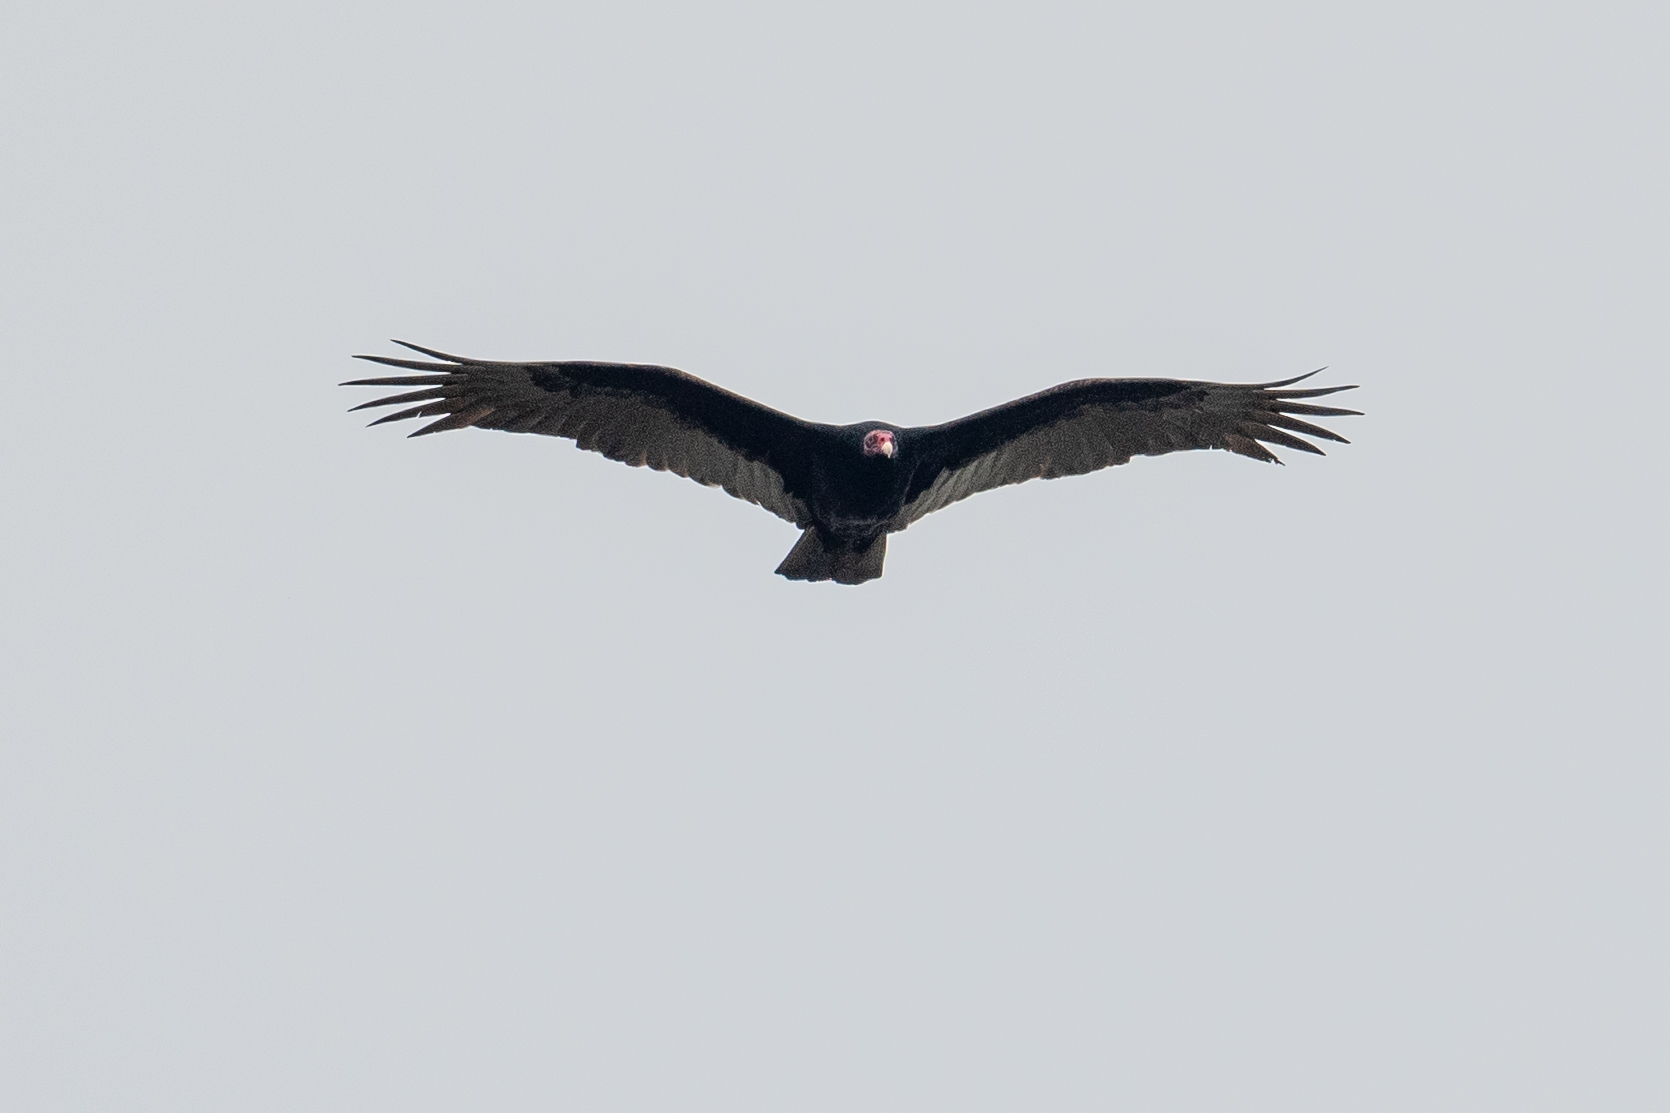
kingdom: Animalia
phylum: Chordata
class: Aves
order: Accipitriformes
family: Cathartidae
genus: Cathartes
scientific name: Cathartes aura
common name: Turkey vulture
